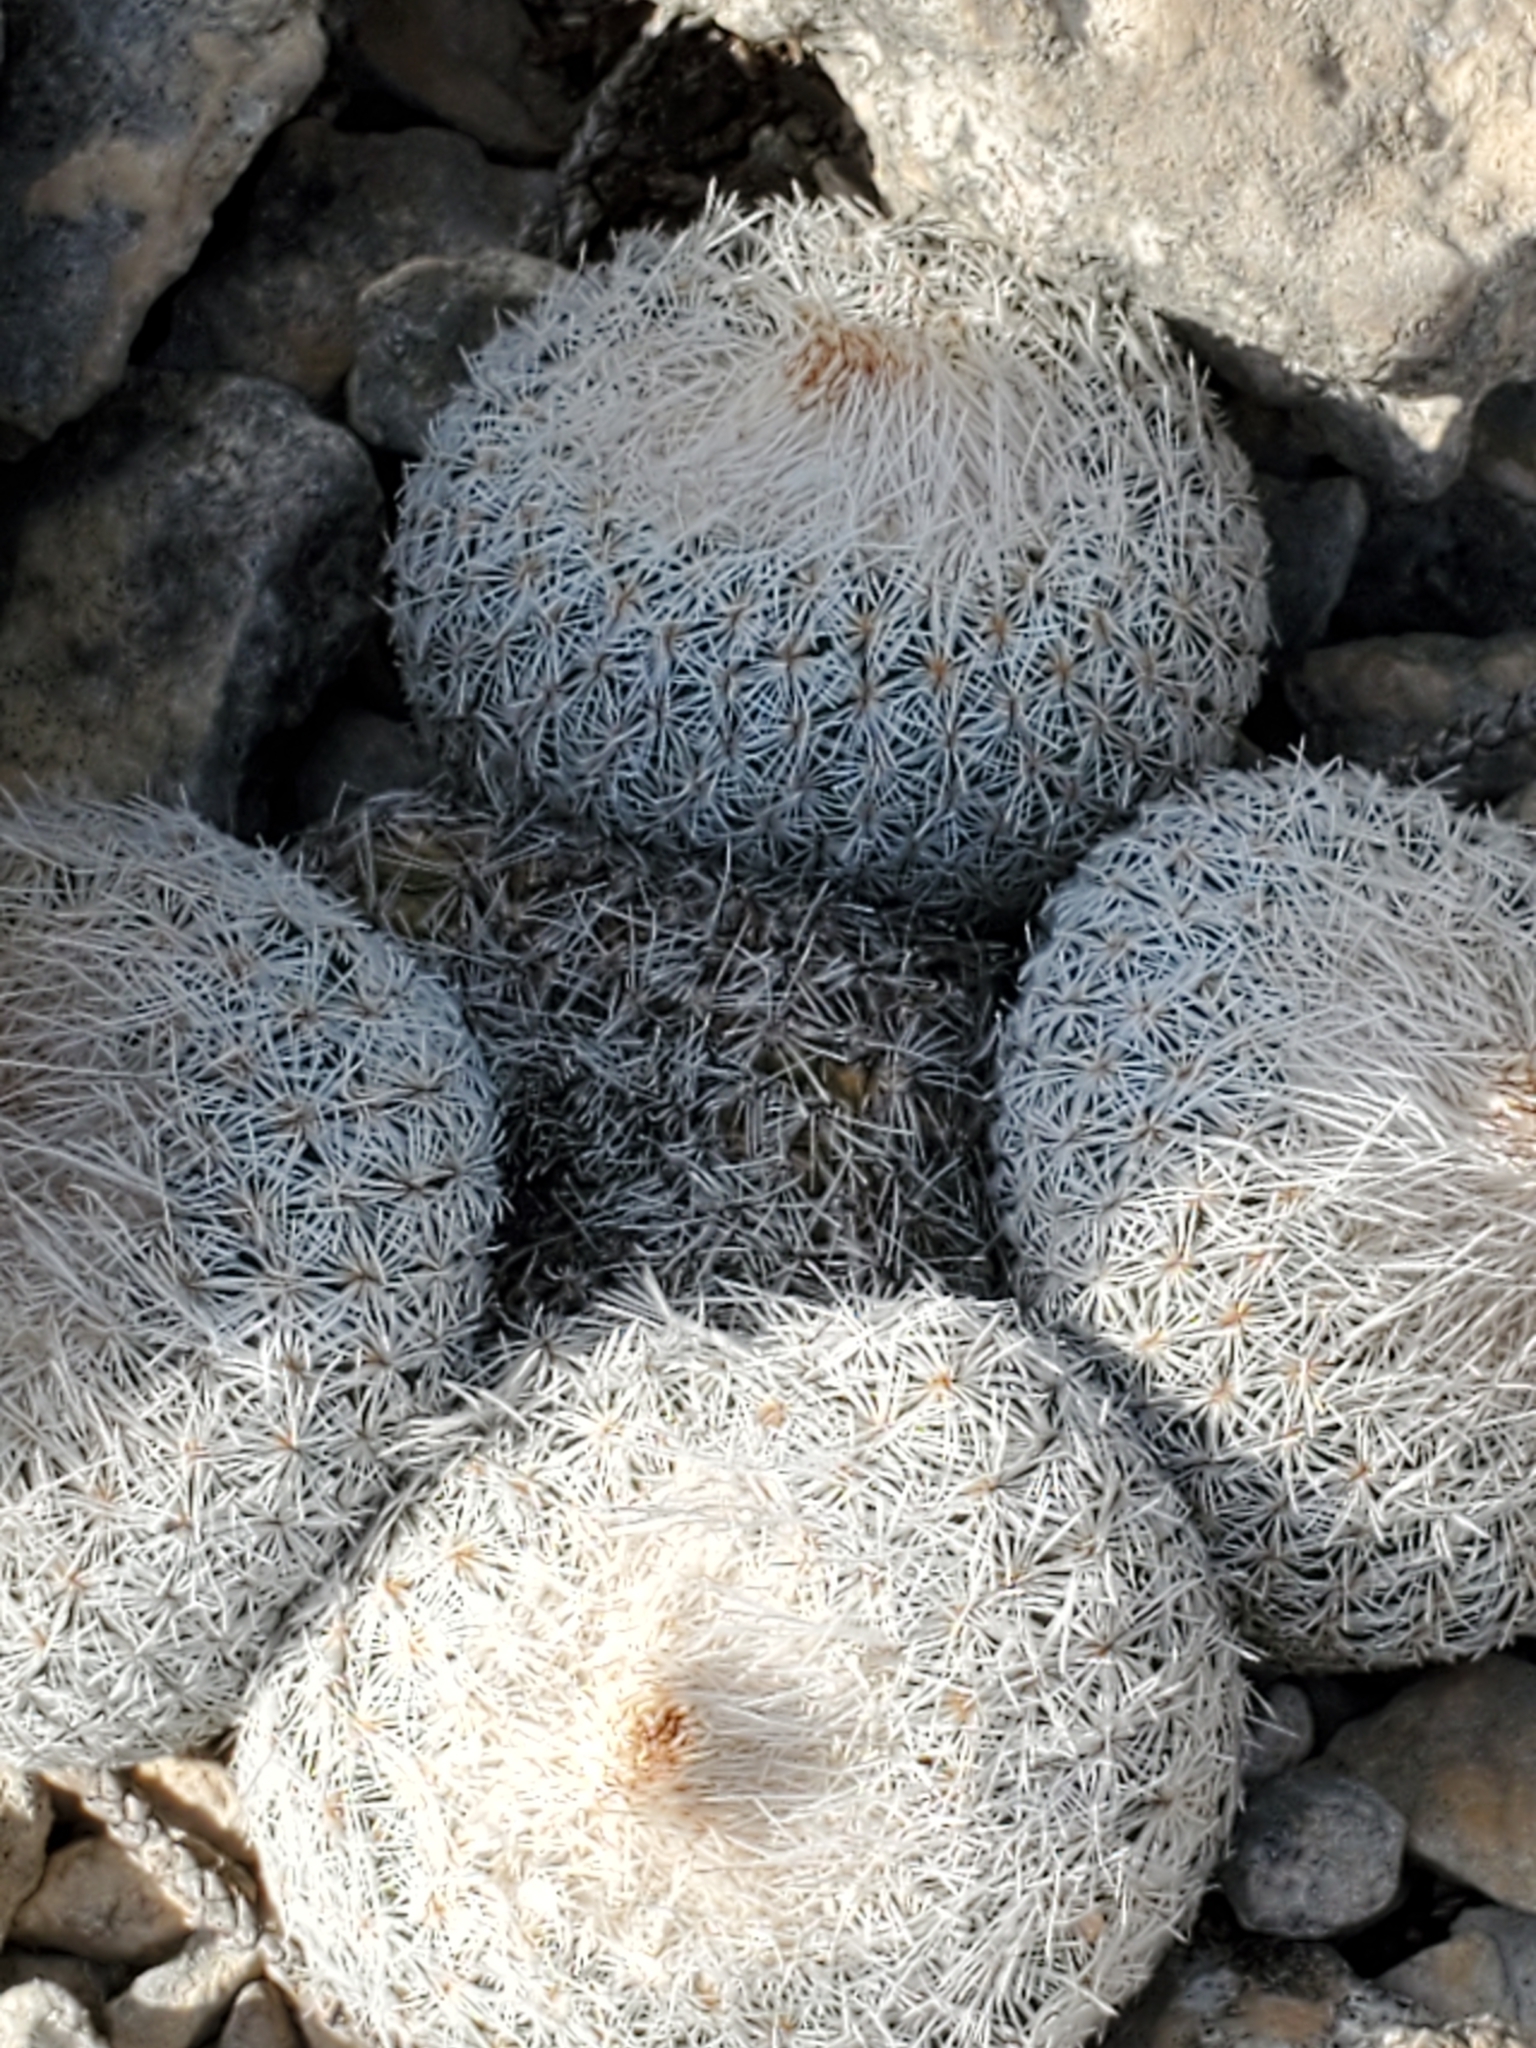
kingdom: Plantae
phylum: Tracheophyta
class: Magnoliopsida
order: Caryophyllales
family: Cactaceae
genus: Epithelantha
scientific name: Epithelantha micromeris
